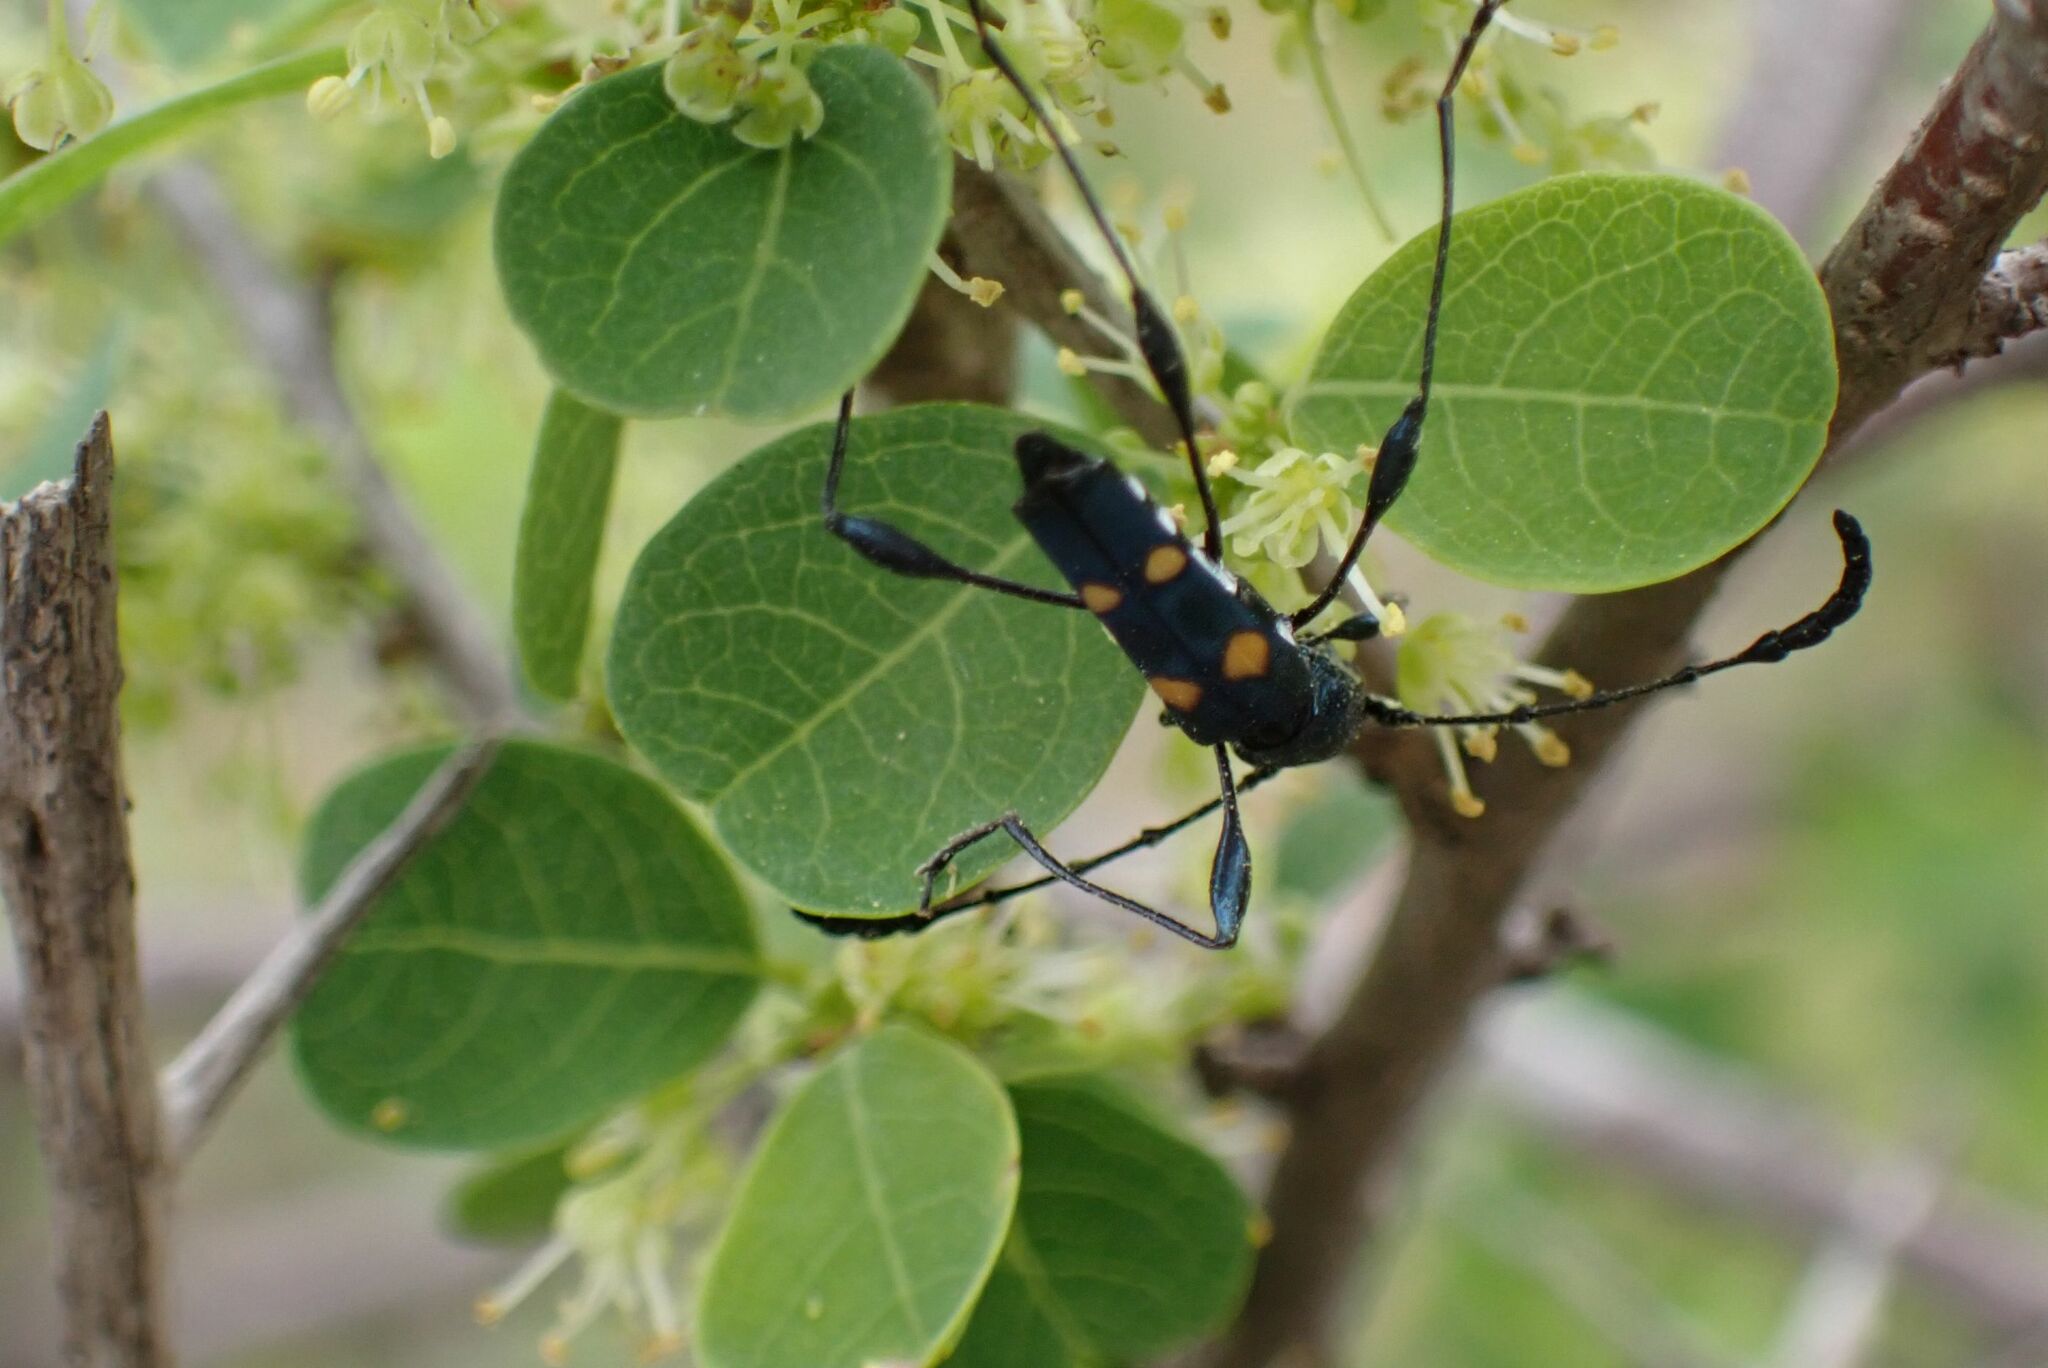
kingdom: Animalia
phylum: Arthropoda
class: Insecta
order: Coleoptera
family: Cerambycidae
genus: Agaleptus
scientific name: Agaleptus quadrinotatus
